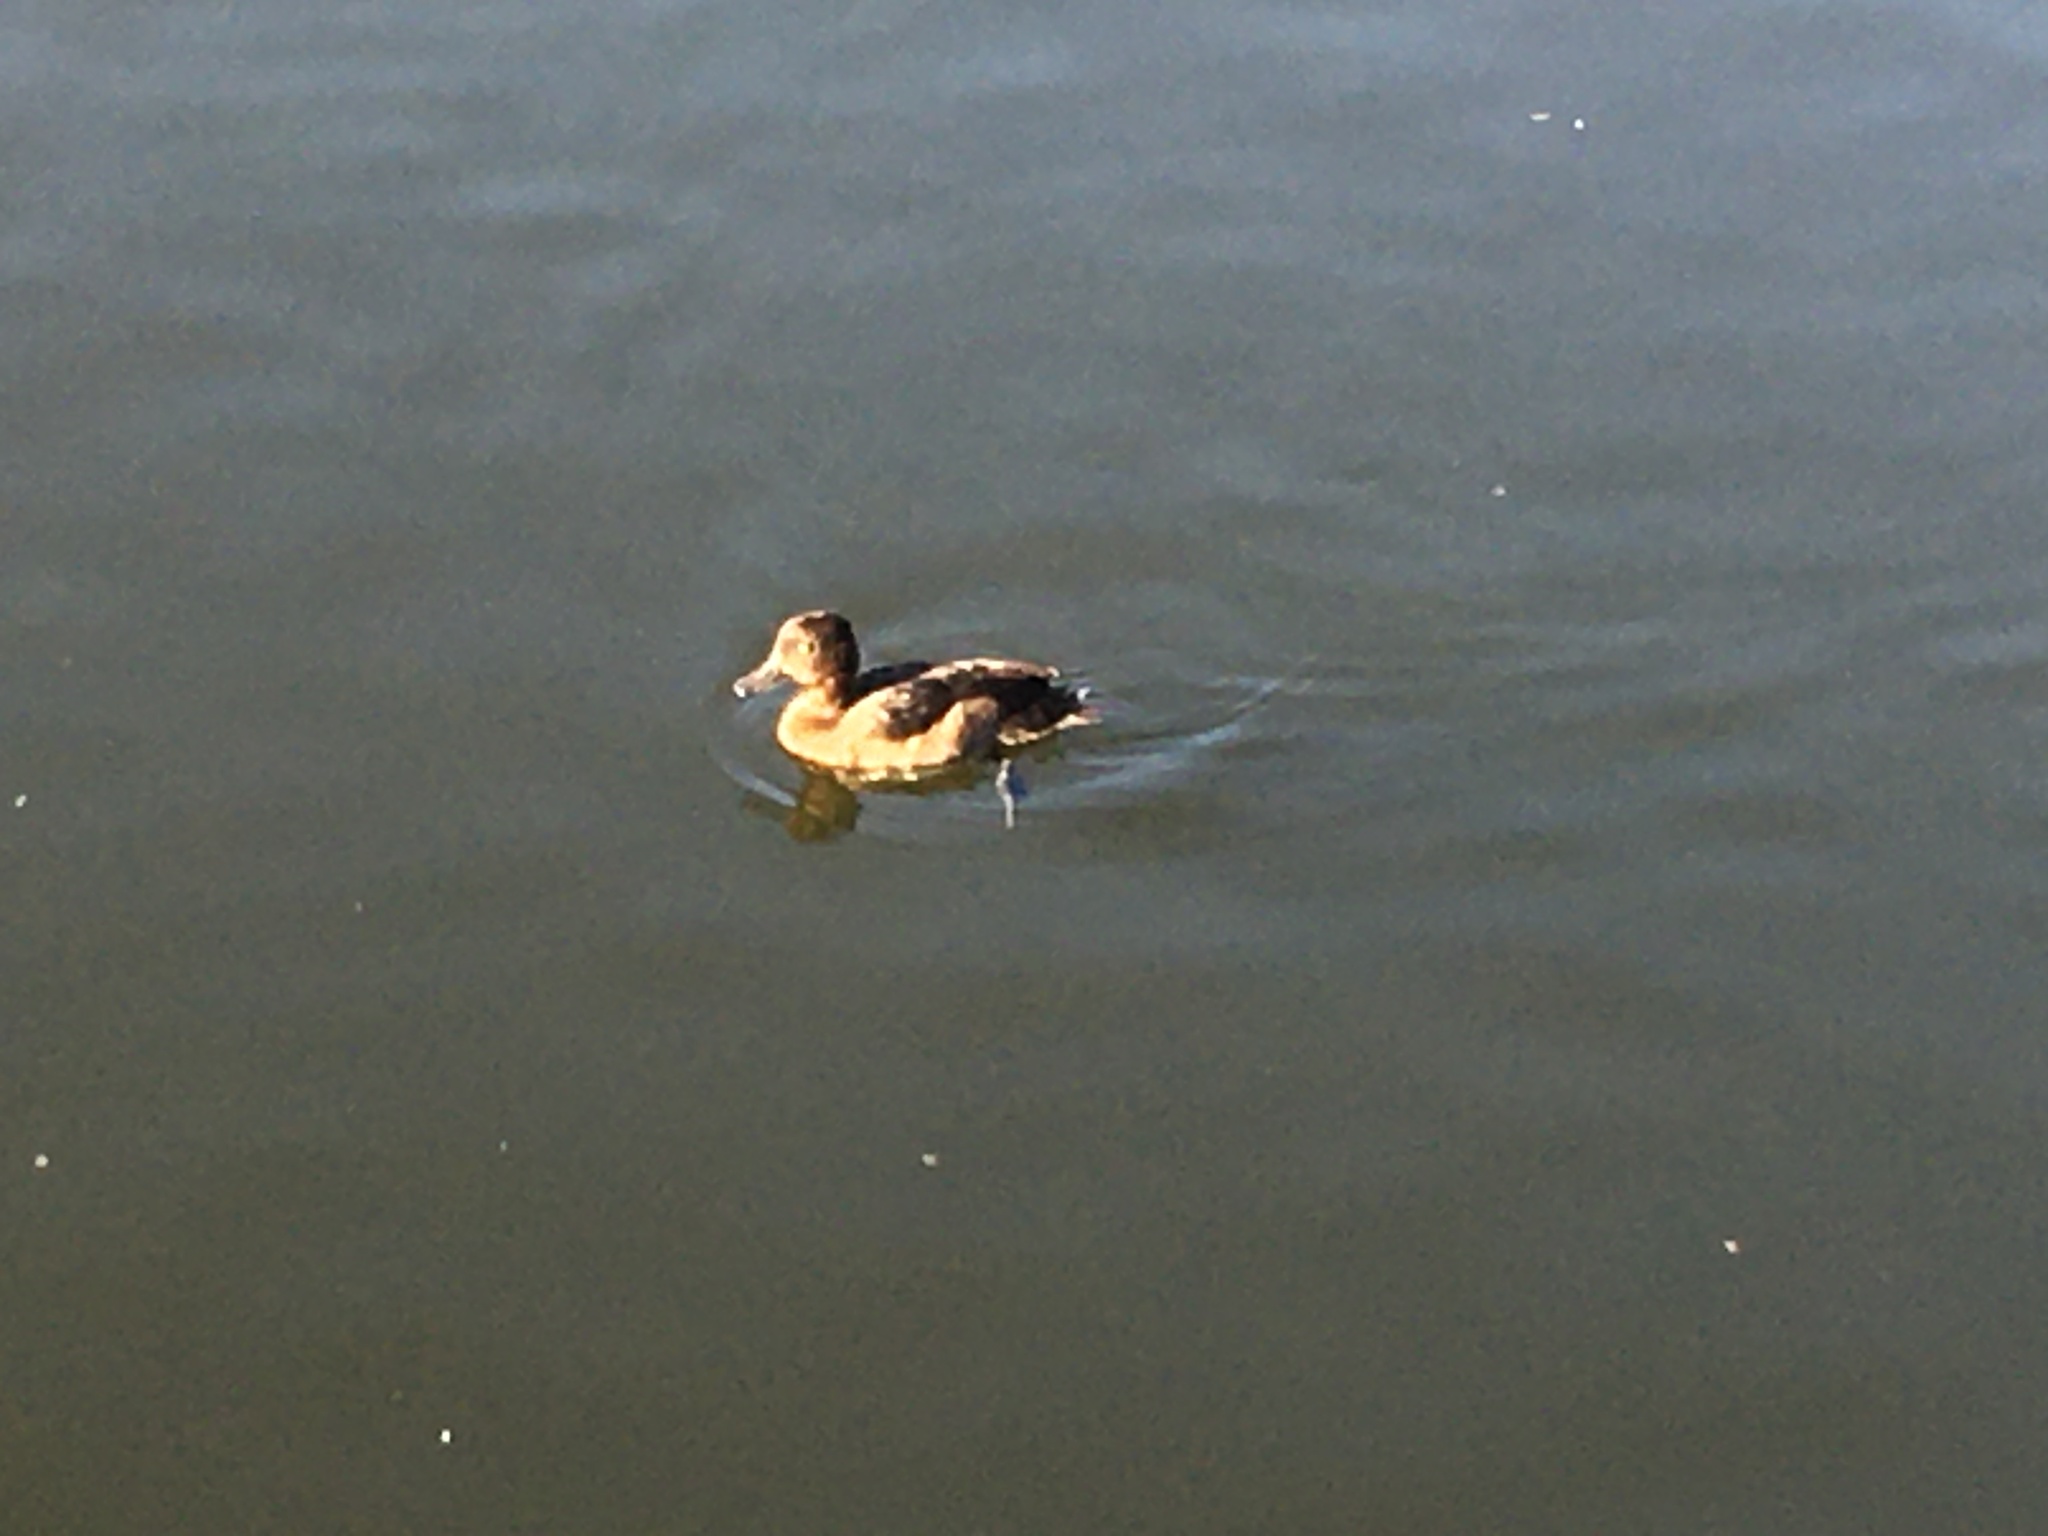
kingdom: Animalia
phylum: Chordata
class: Aves
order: Anseriformes
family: Anatidae
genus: Aythya
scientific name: Aythya fuligula
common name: Tufted duck
